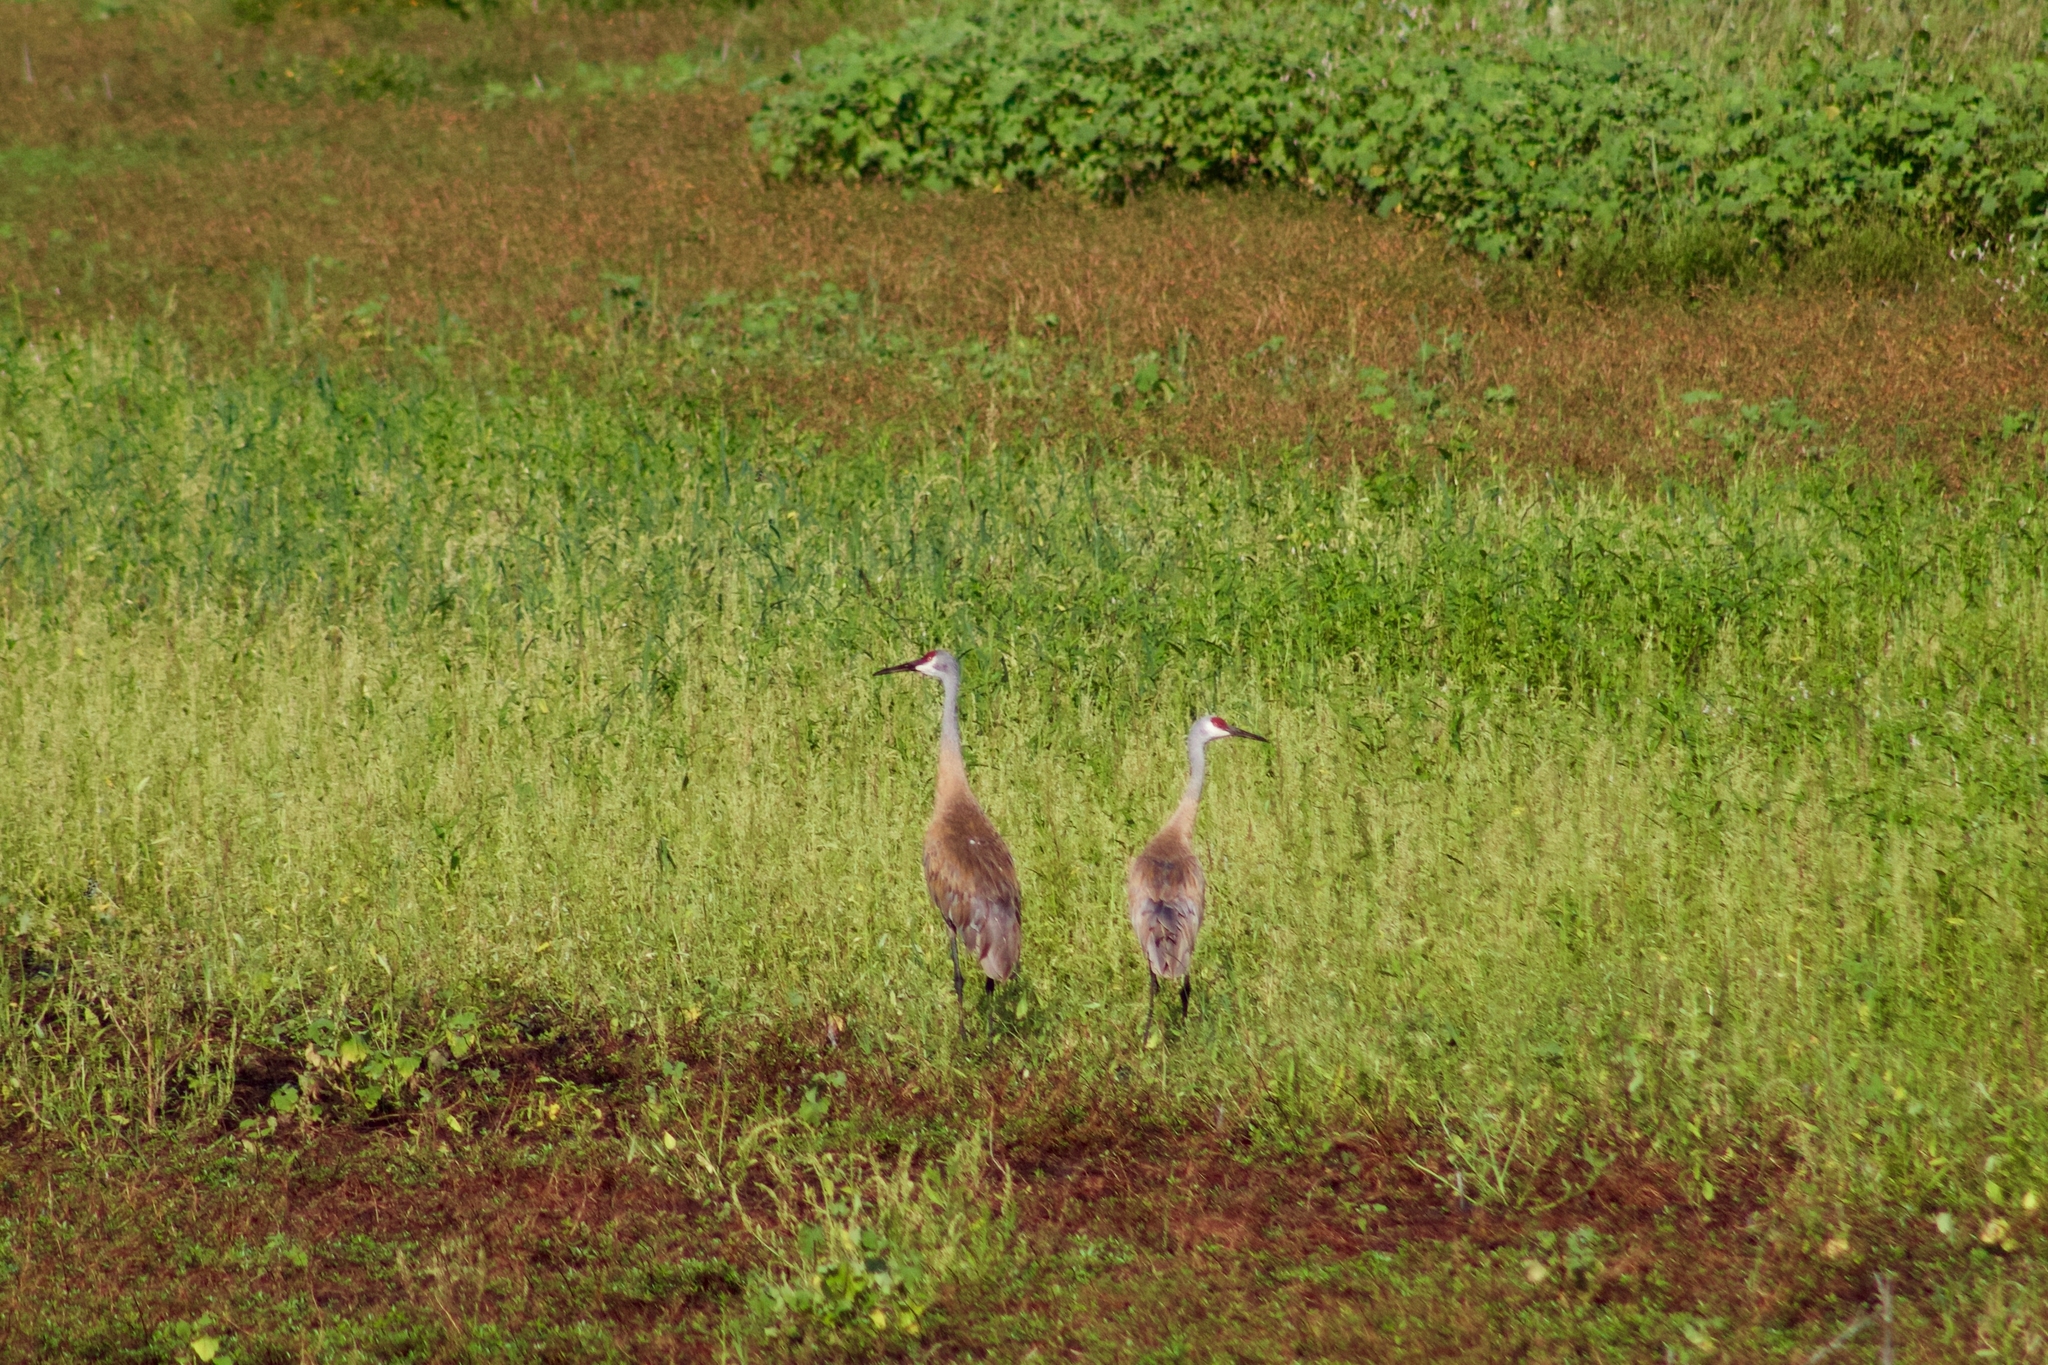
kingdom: Animalia
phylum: Chordata
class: Aves
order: Gruiformes
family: Gruidae
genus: Grus
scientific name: Grus canadensis
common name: Sandhill crane
